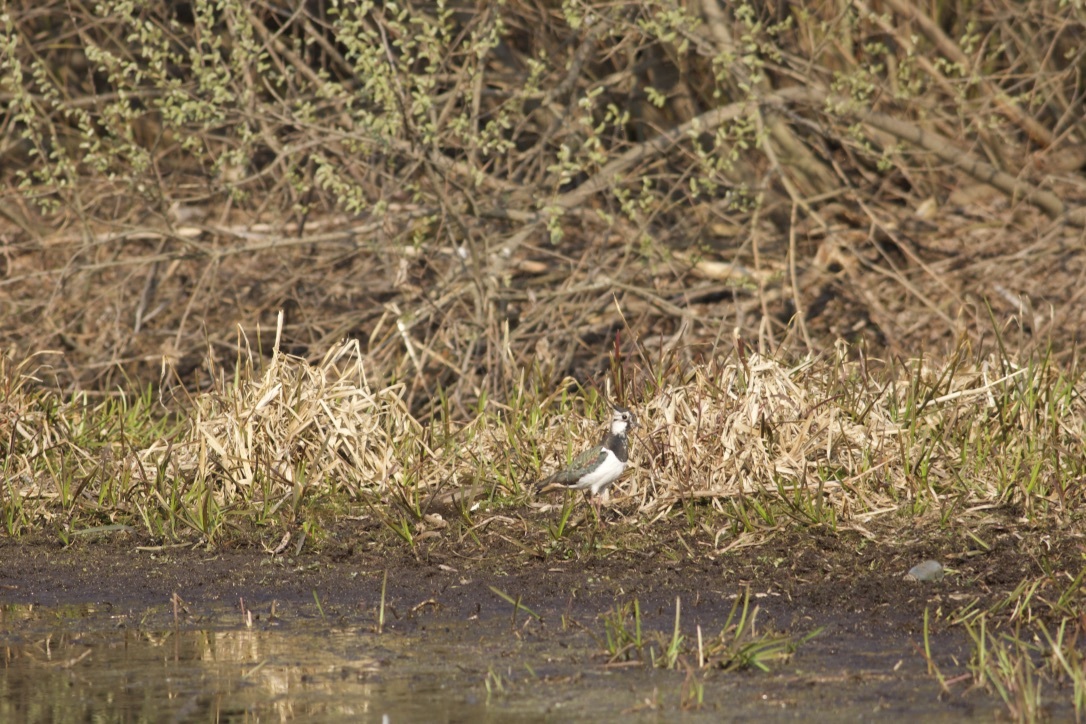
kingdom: Animalia
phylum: Chordata
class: Aves
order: Charadriiformes
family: Charadriidae
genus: Vanellus
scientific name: Vanellus vanellus
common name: Northern lapwing
